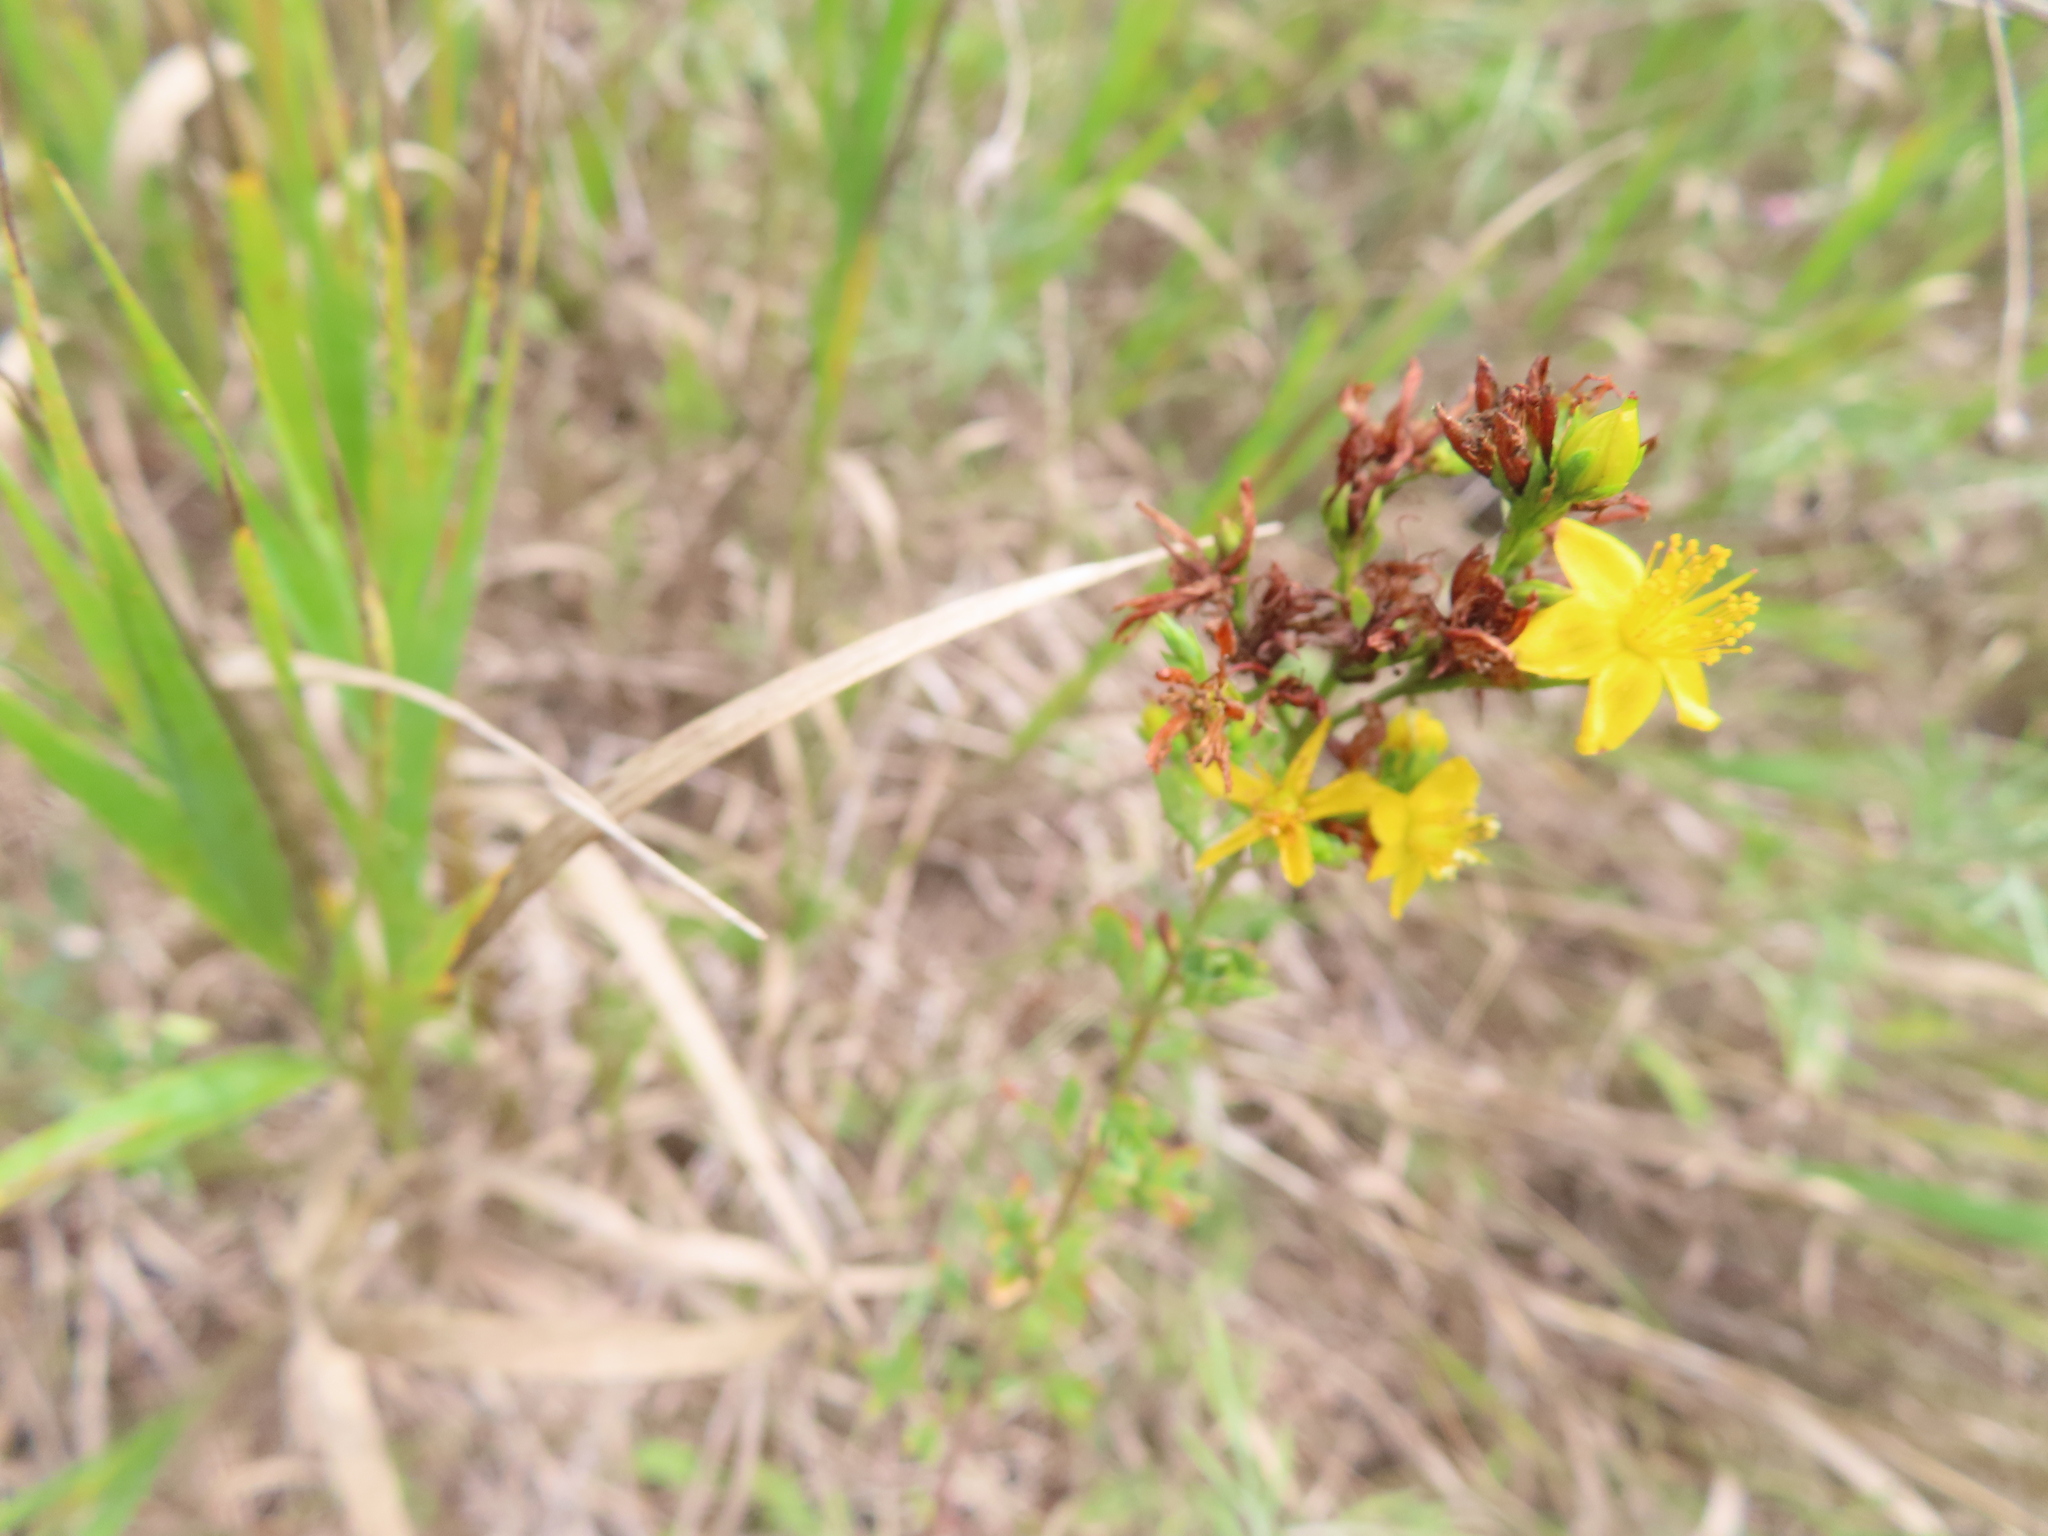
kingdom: Plantae
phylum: Tracheophyta
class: Magnoliopsida
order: Malpighiales
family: Hypericaceae
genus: Hypericum
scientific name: Hypericum perforatum
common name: Common st. johnswort
